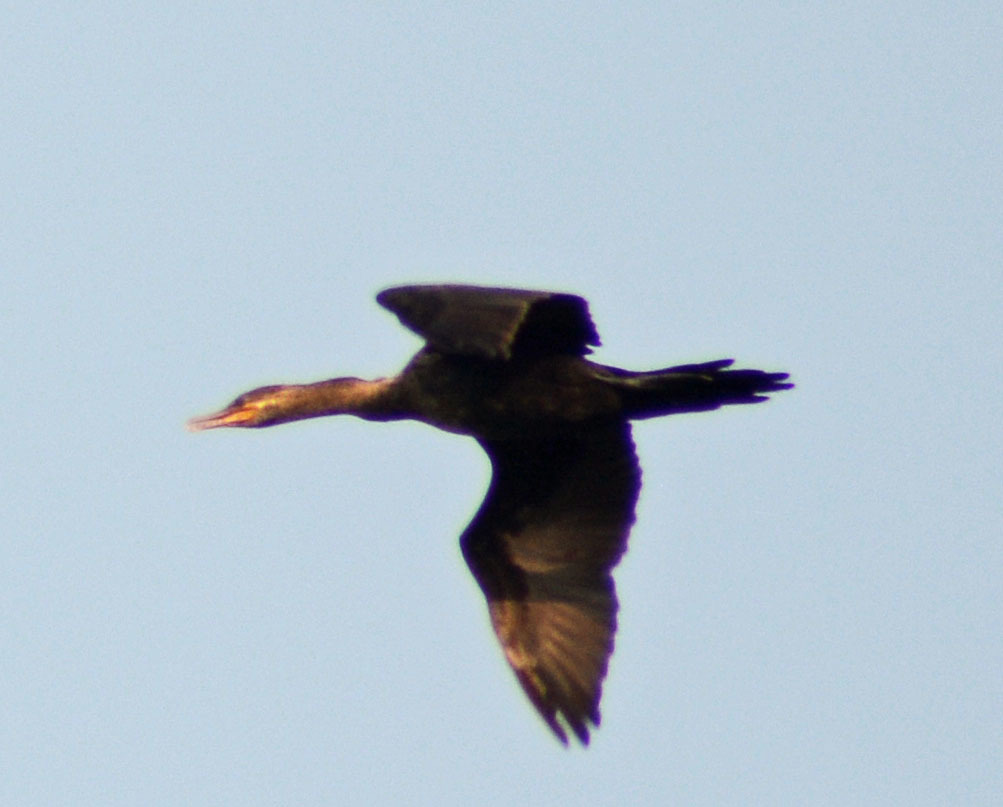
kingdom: Animalia
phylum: Chordata
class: Aves
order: Suliformes
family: Phalacrocoracidae
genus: Phalacrocorax
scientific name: Phalacrocorax brasilianus
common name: Neotropic cormorant
